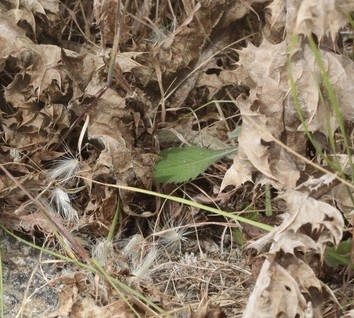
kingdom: Animalia
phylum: Chordata
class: Squamata
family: Psammophiidae
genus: Malpolon
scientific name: Malpolon monspessulanus
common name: Montpellier snake
